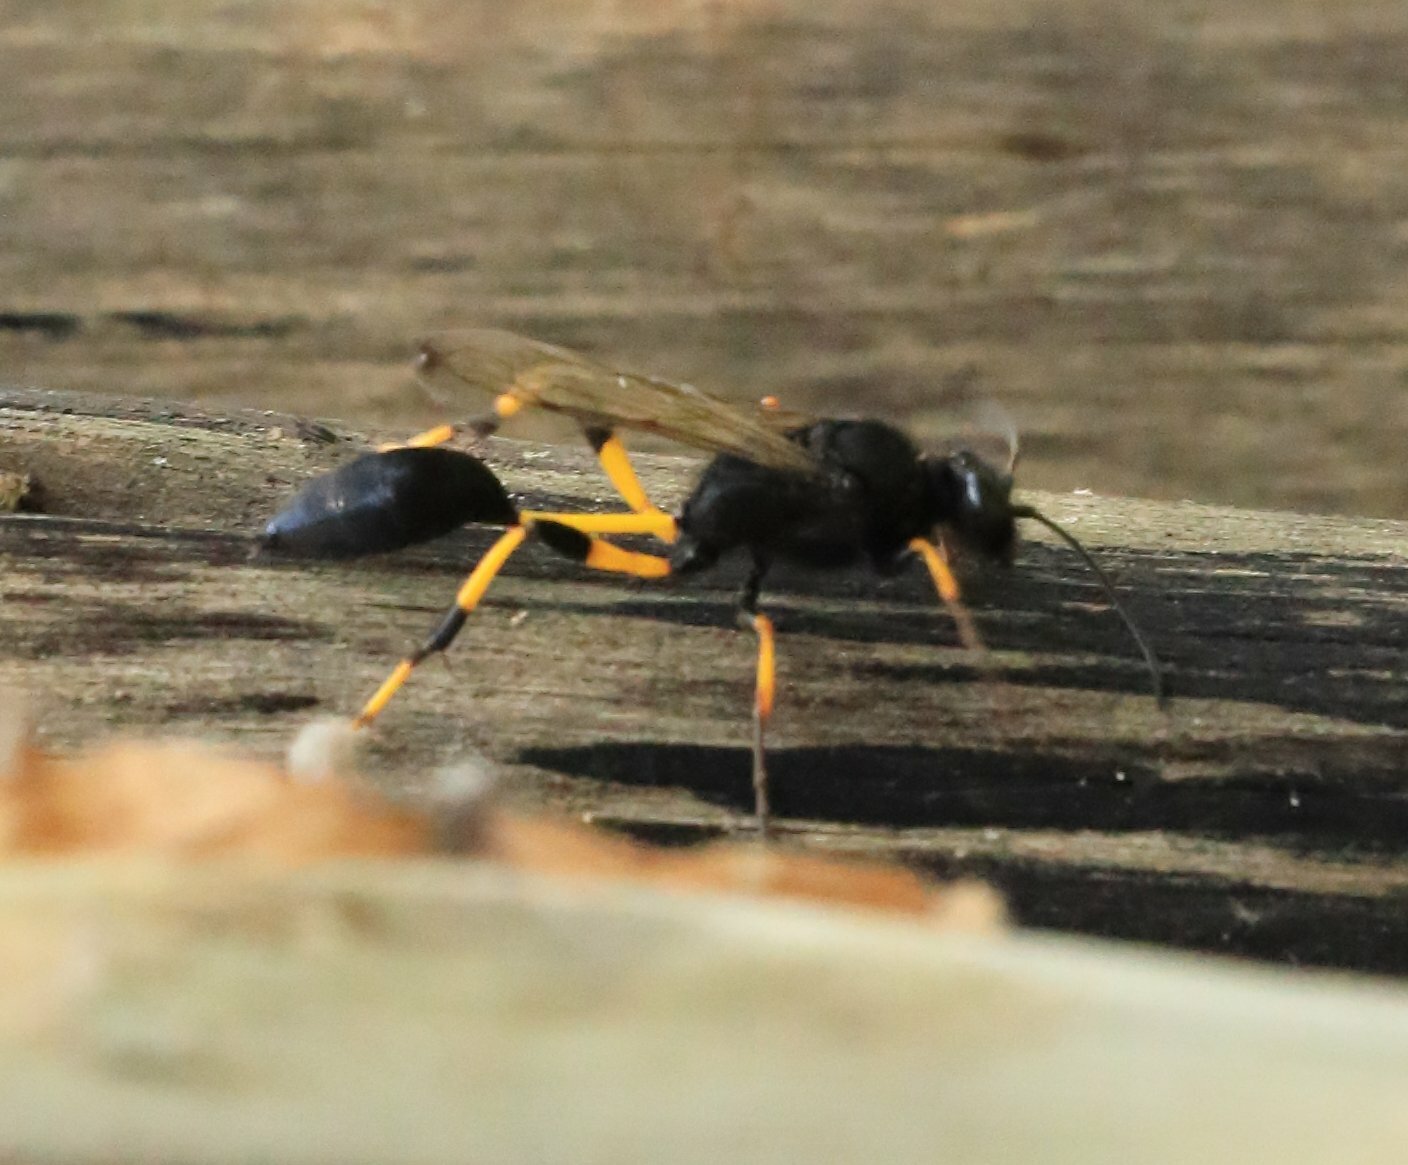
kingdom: Animalia
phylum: Arthropoda
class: Insecta
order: Hymenoptera
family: Sphecidae
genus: Sceliphron
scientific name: Sceliphron spirifex
